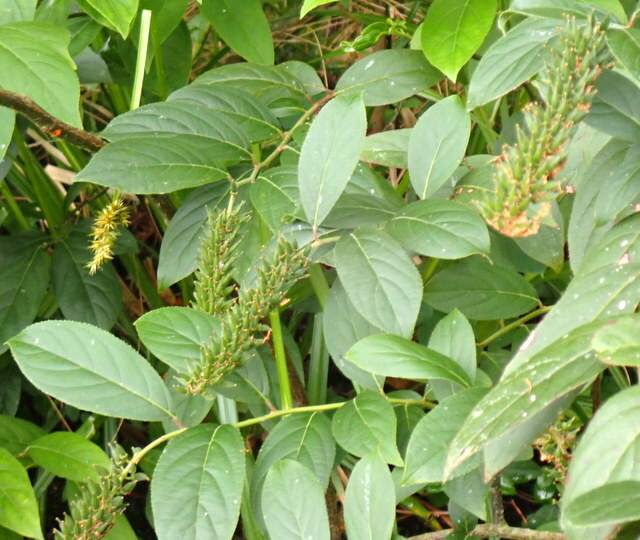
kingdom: Plantae
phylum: Tracheophyta
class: Magnoliopsida
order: Saxifragales
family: Iteaceae
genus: Itea
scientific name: Itea virginica
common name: Sweetspire
